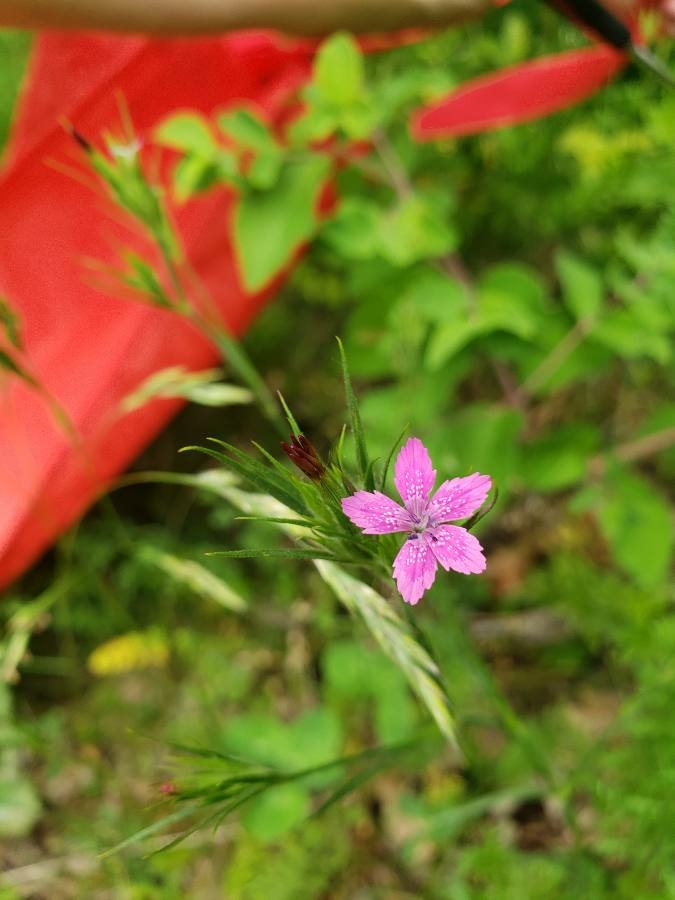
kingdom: Plantae
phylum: Tracheophyta
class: Magnoliopsida
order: Caryophyllales
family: Caryophyllaceae
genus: Dianthus
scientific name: Dianthus armeria
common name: Deptford pink
